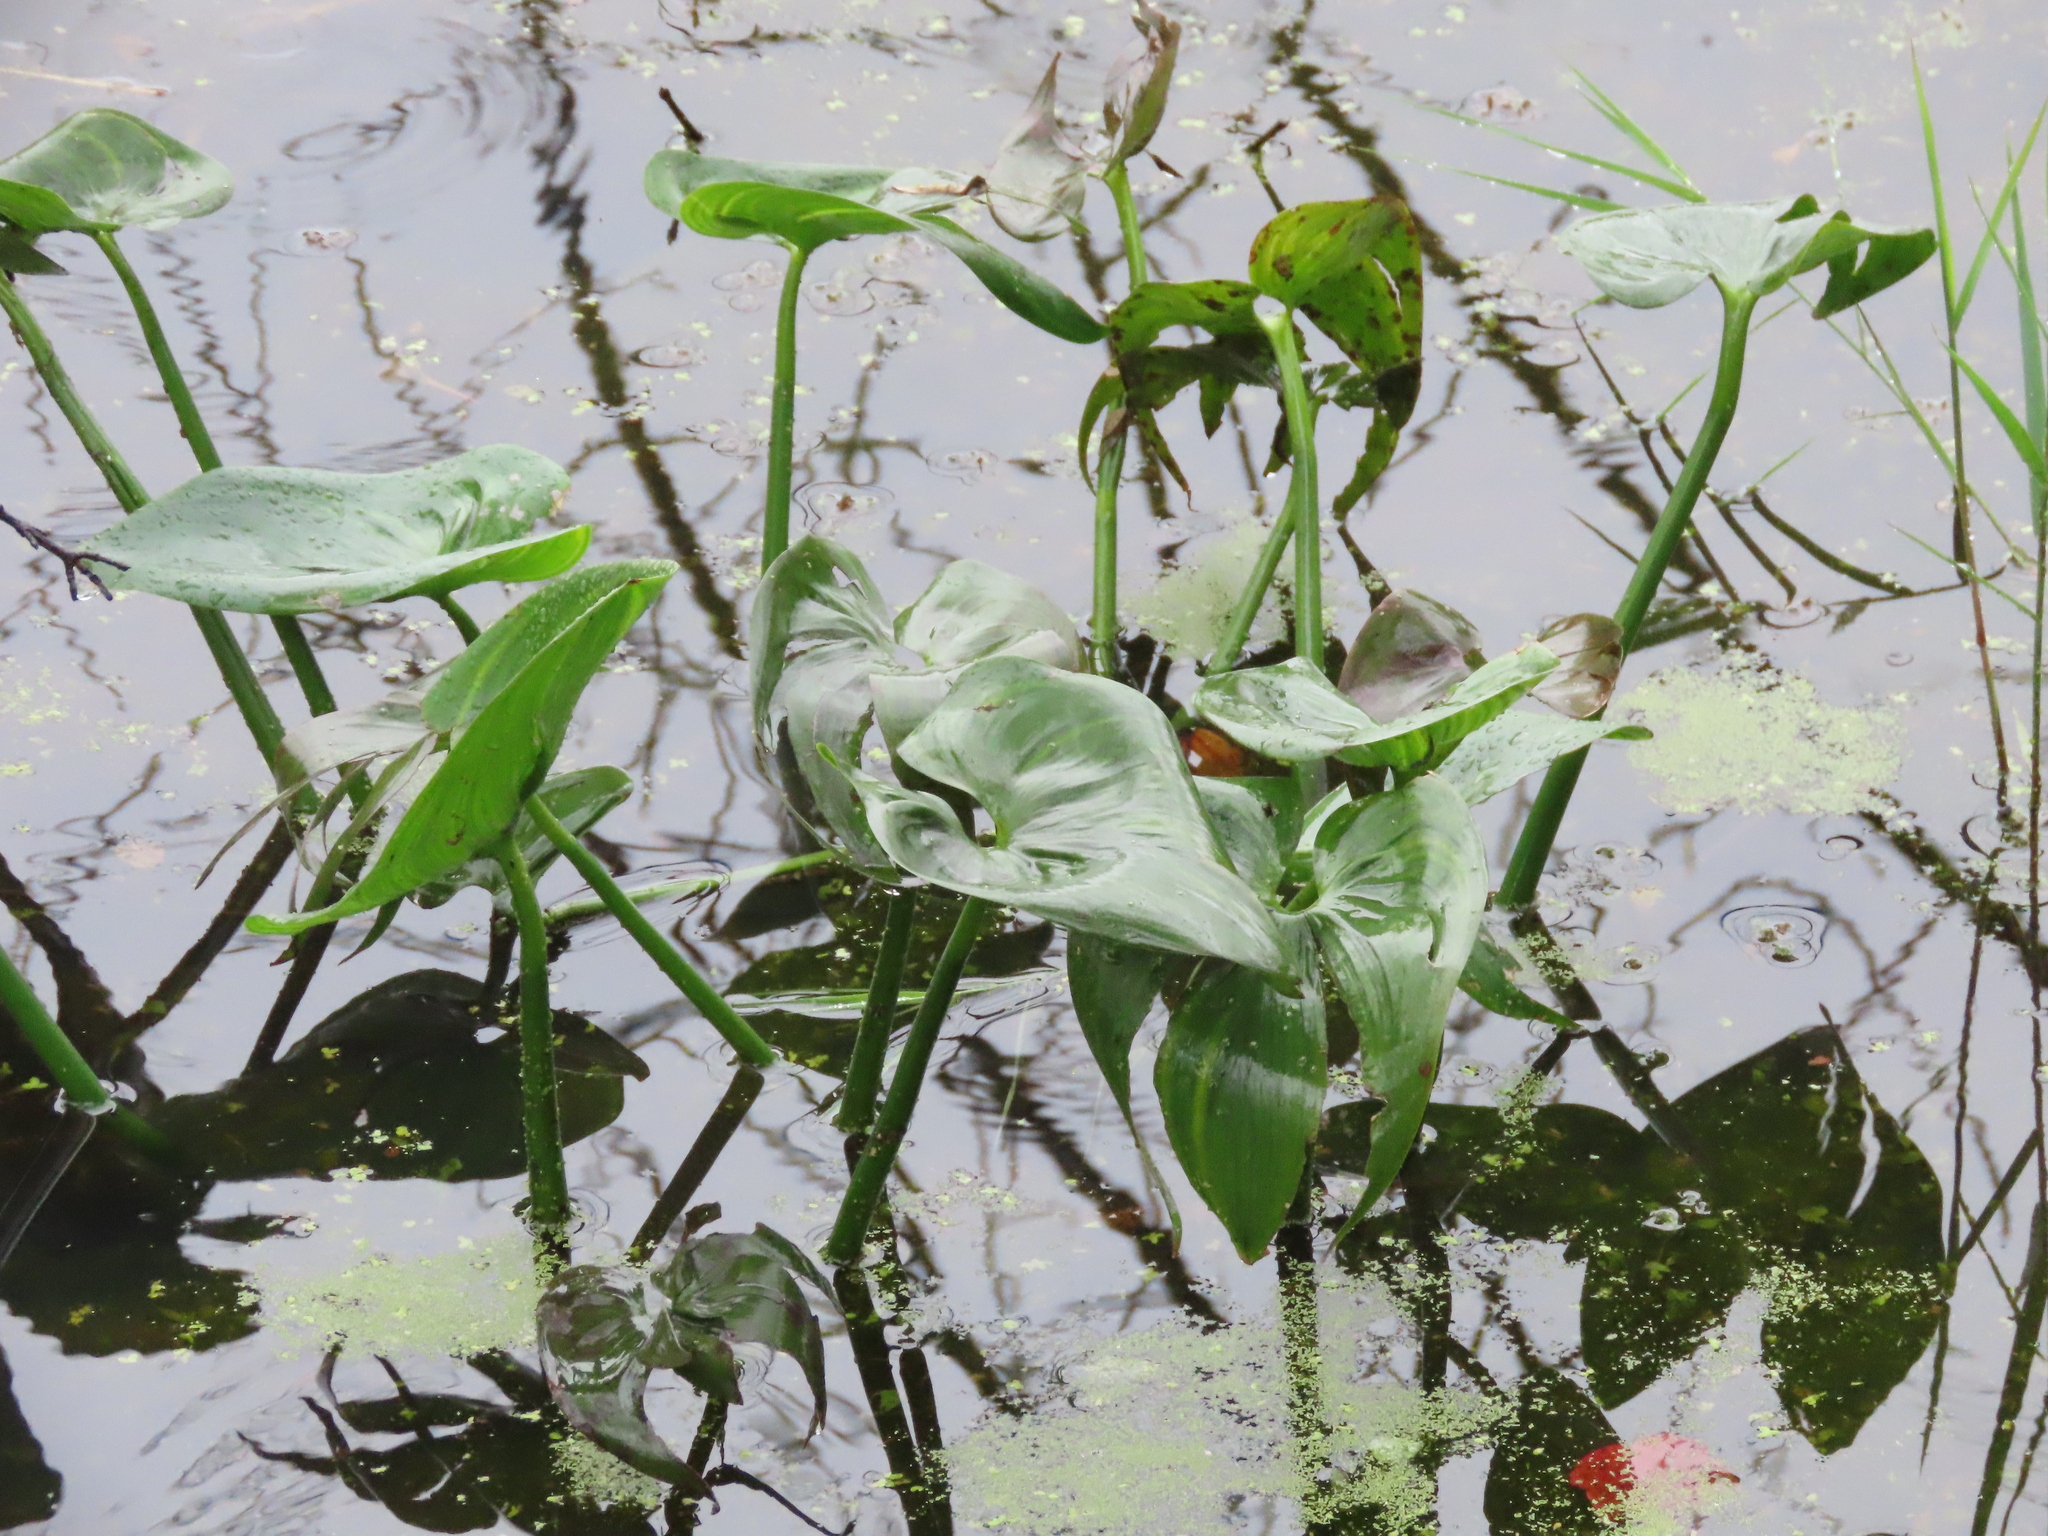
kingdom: Plantae
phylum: Tracheophyta
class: Liliopsida
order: Alismatales
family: Araceae
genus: Peltandra
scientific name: Peltandra virginica
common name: Arrow arum
